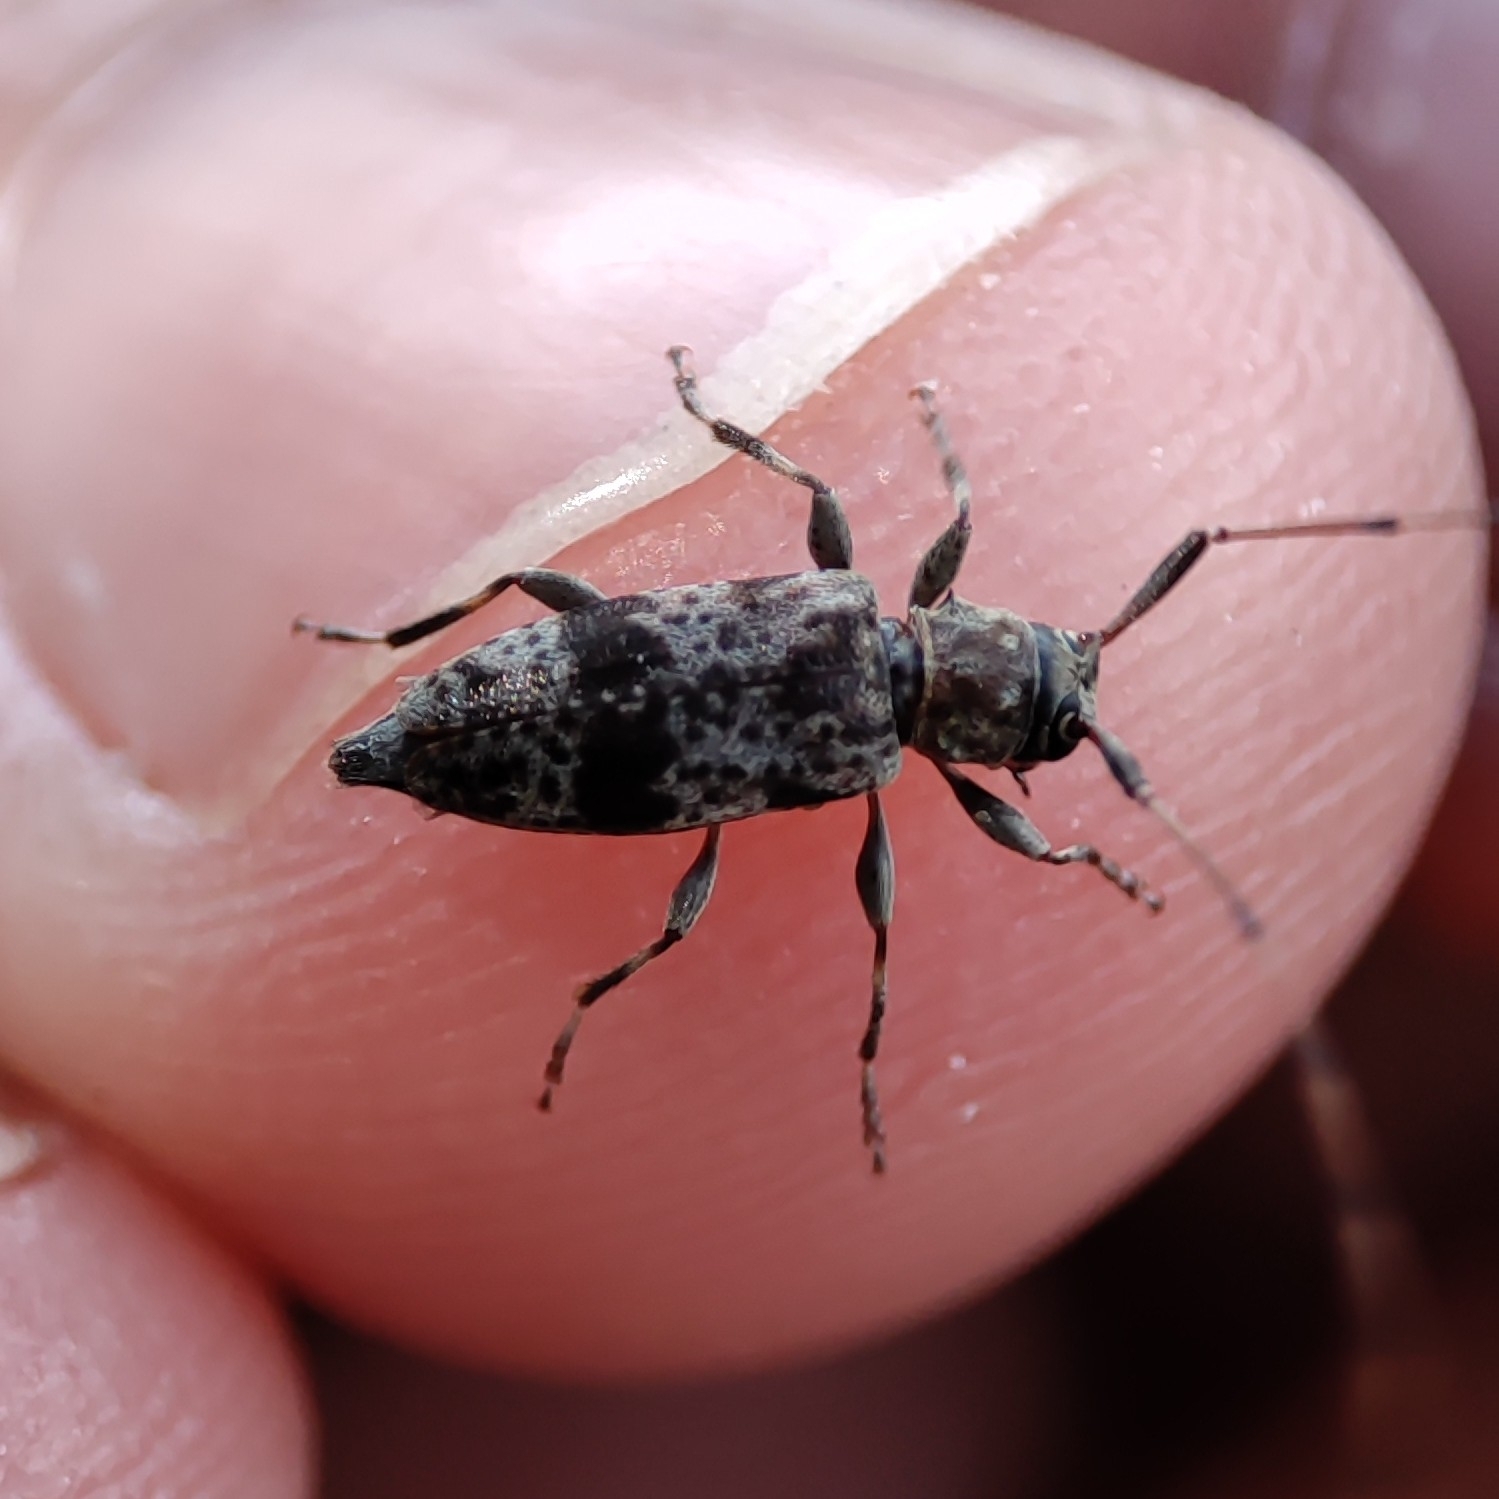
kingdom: Animalia
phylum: Arthropoda
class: Insecta
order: Coleoptera
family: Cerambycidae
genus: Leiopus
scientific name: Leiopus femoratus
